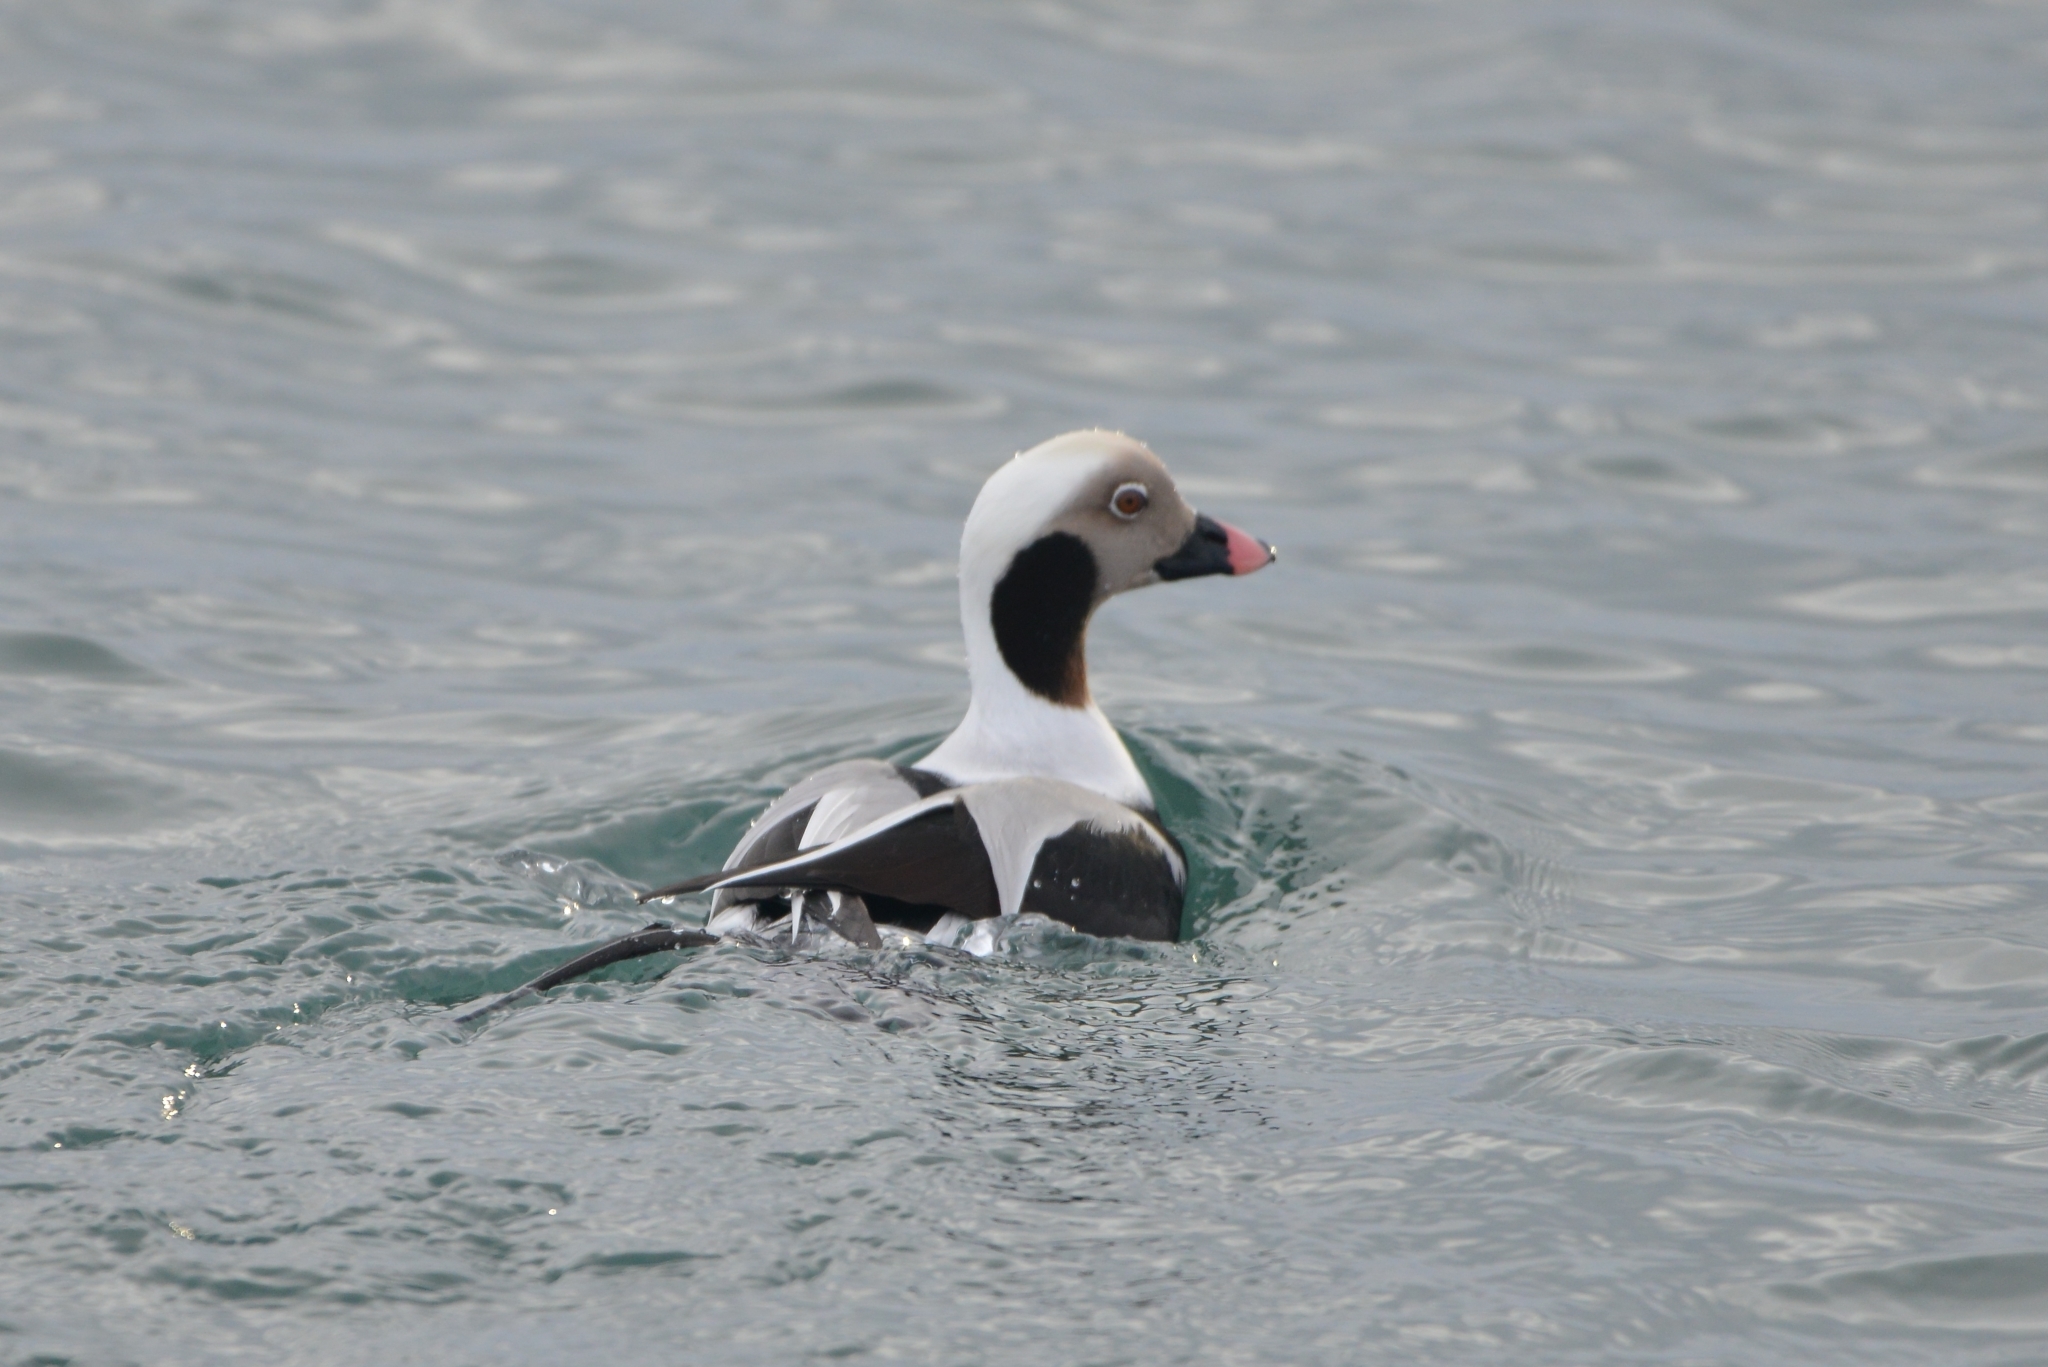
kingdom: Animalia
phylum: Chordata
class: Aves
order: Anseriformes
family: Anatidae
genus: Clangula
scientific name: Clangula hyemalis
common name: Long-tailed duck
